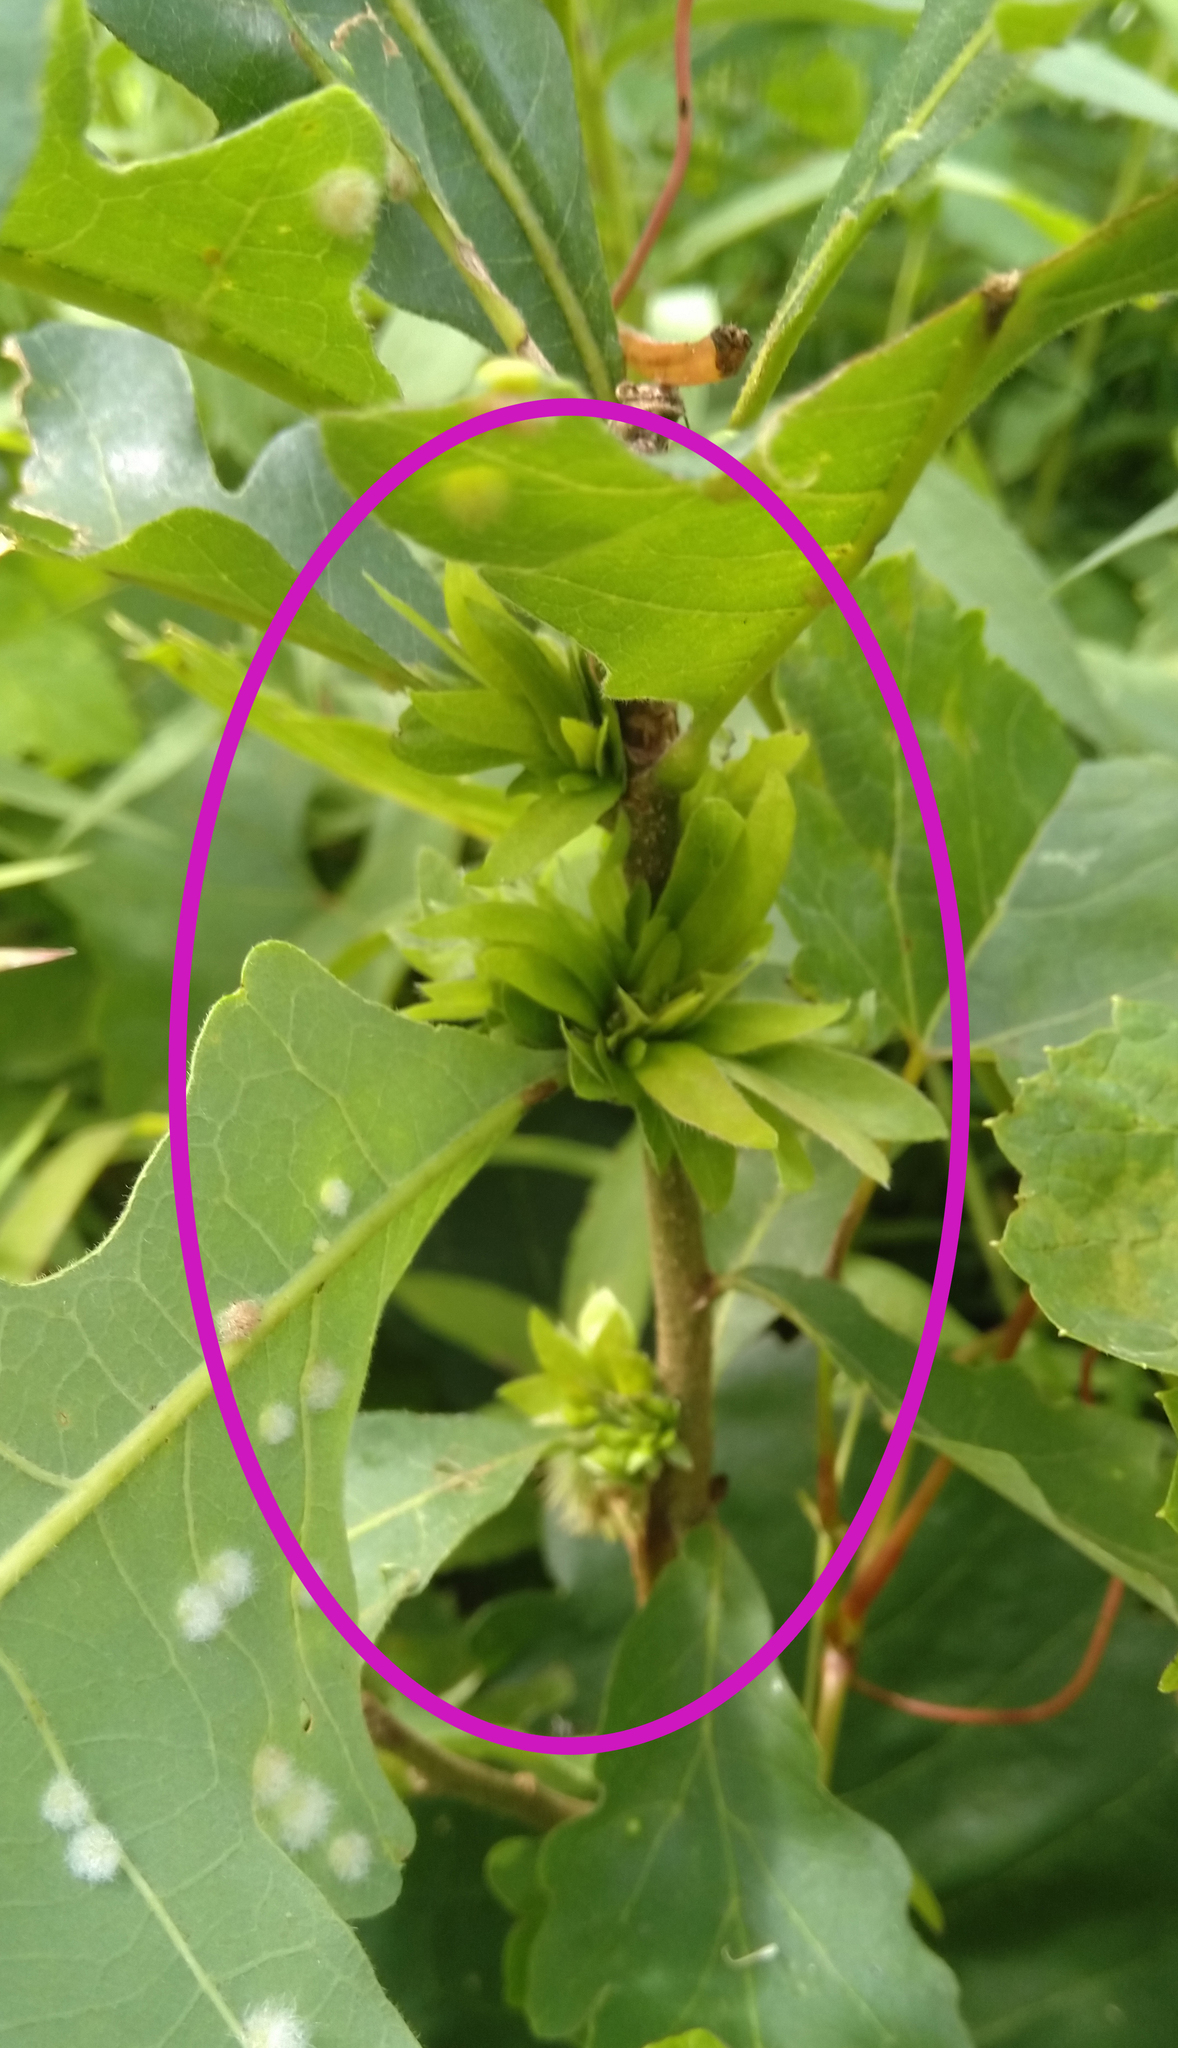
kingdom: Animalia
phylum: Arthropoda
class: Insecta
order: Hymenoptera
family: Cynipidae
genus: Andricus
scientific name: Andricus
